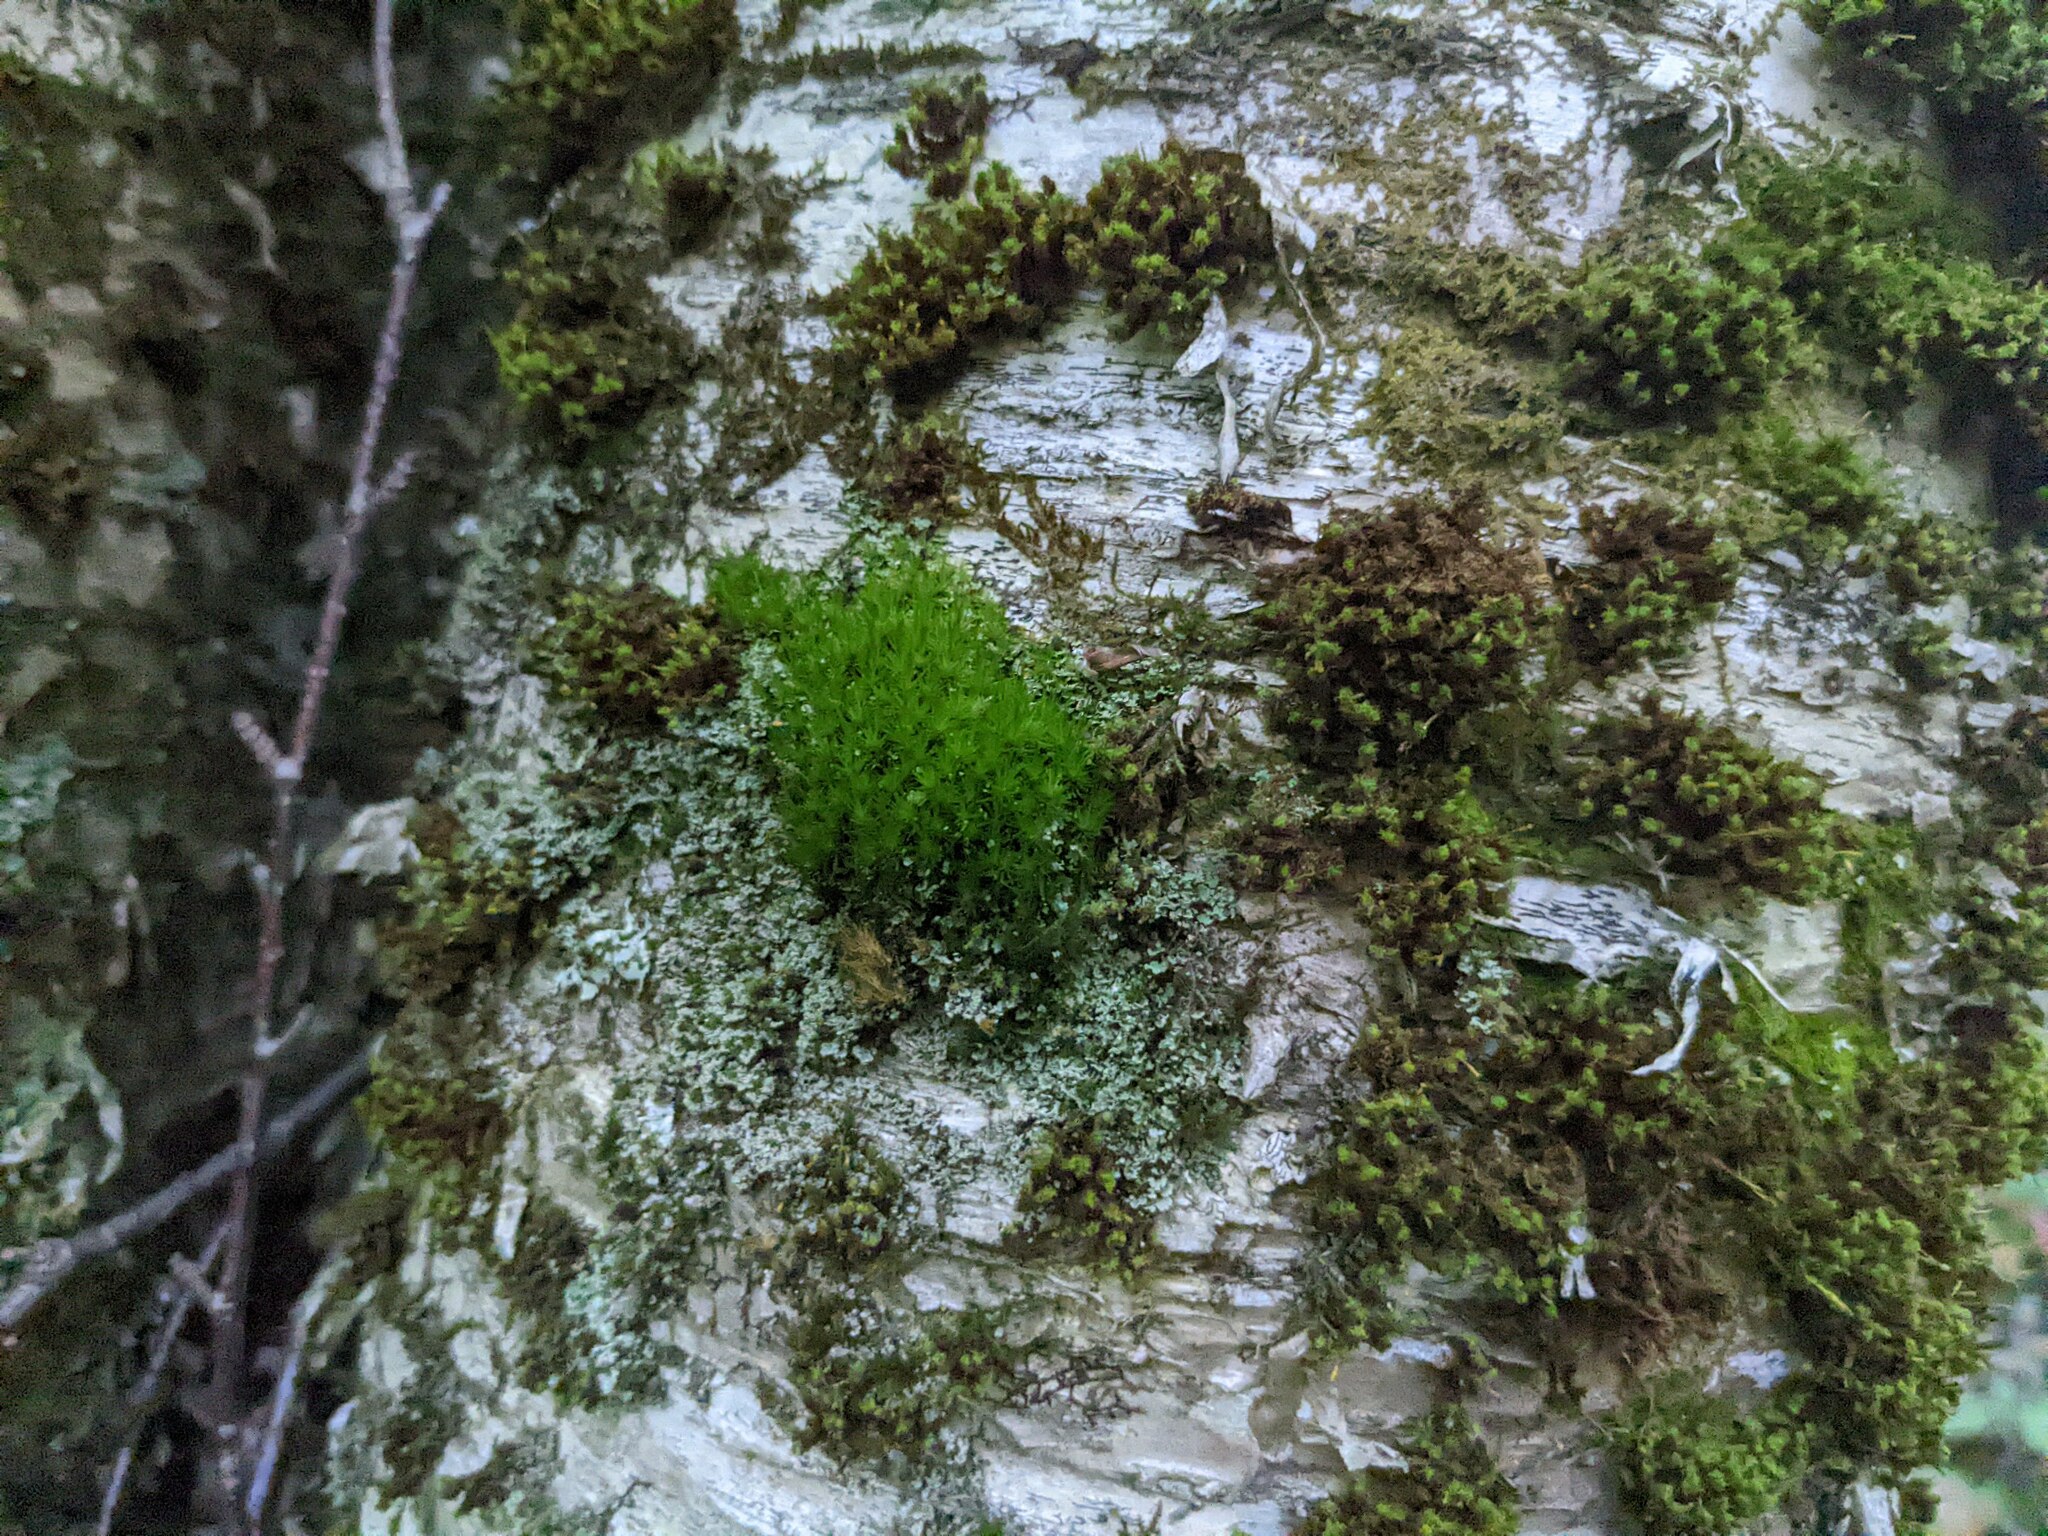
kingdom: Plantae
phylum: Bryophyta
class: Bryopsida
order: Orthotrichales
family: Orthotrichaceae
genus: Ulota
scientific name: Ulota crispa
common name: Crisped pincushion moss
